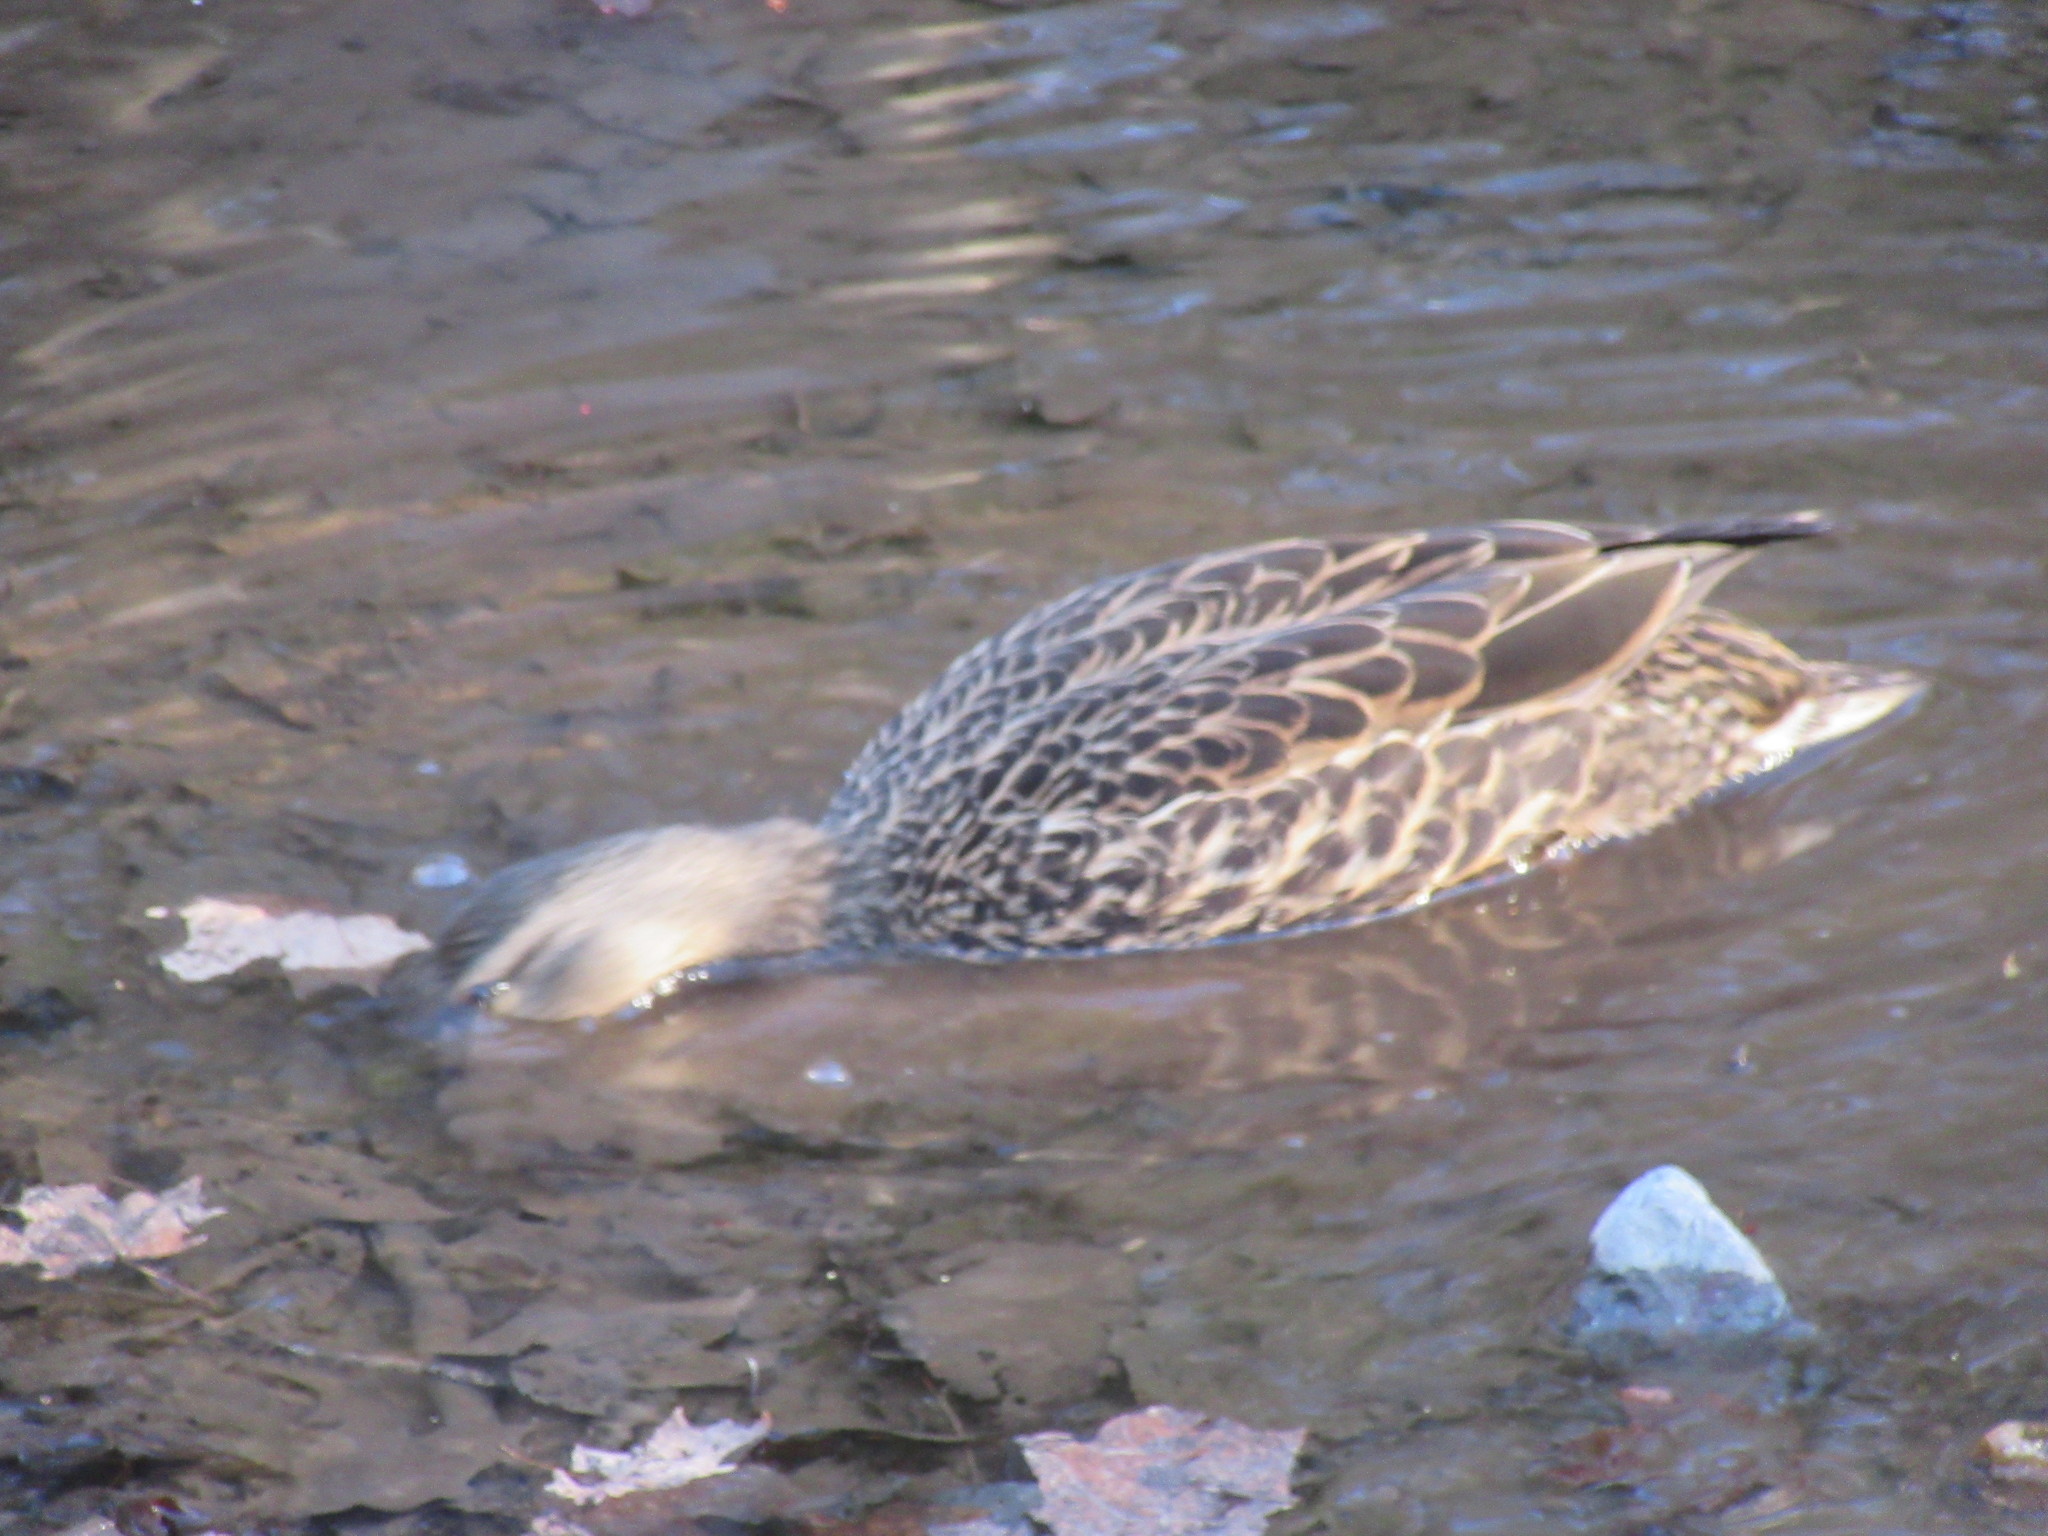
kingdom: Animalia
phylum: Chordata
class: Aves
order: Anseriformes
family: Anatidae
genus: Anas
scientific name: Anas platyrhynchos
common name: Mallard
